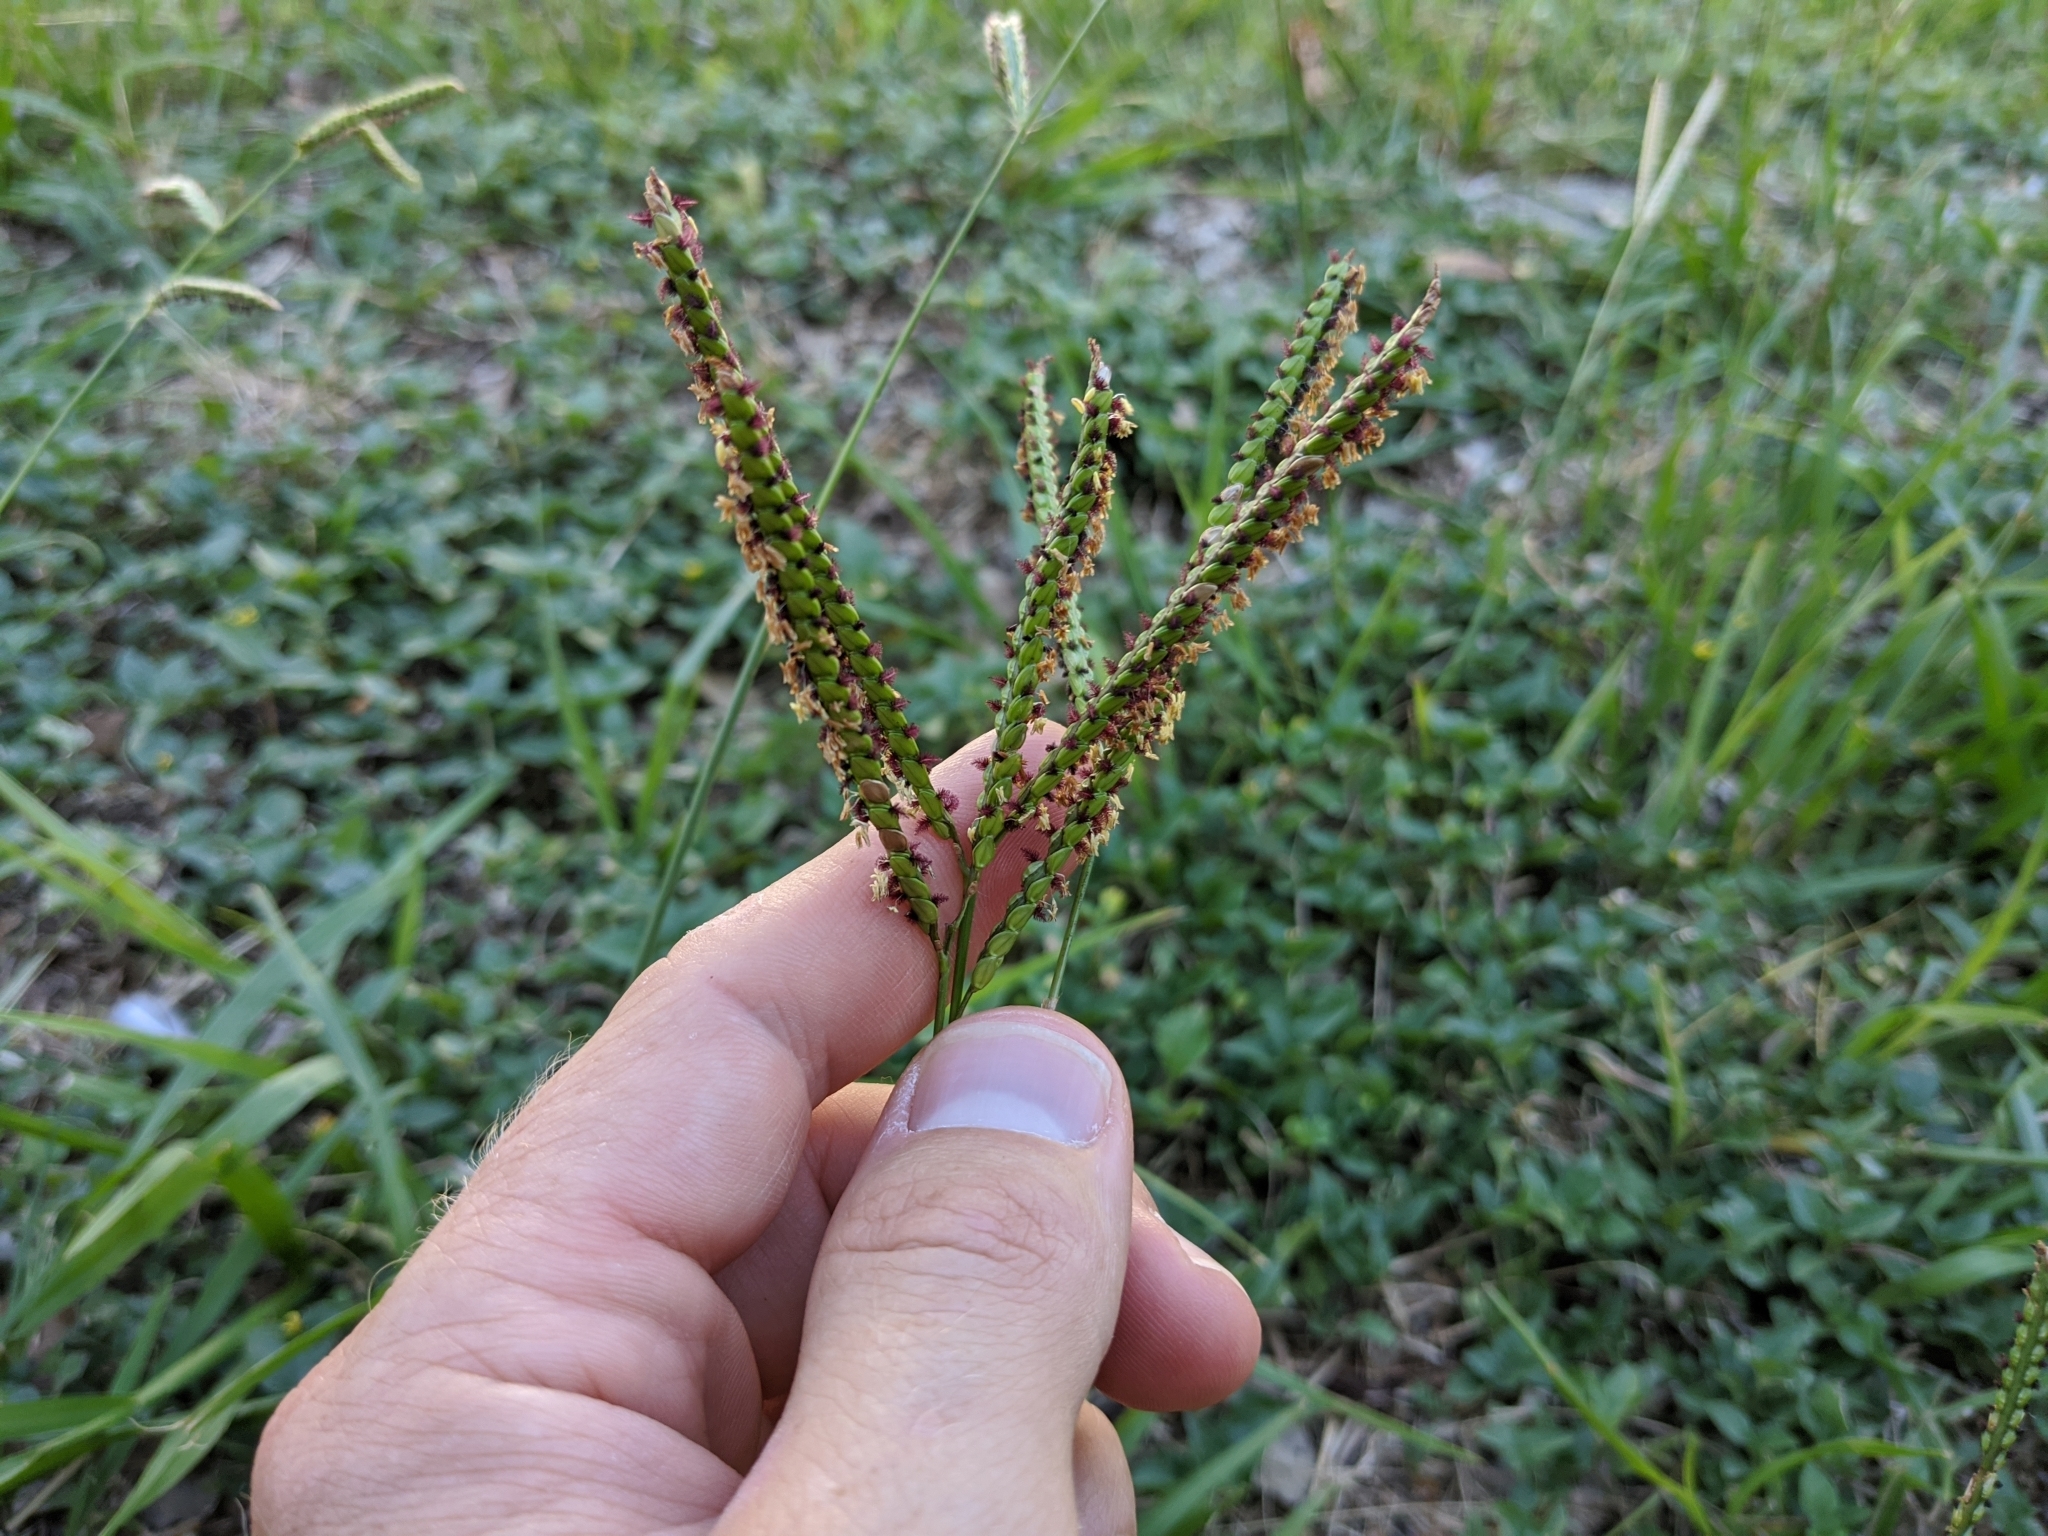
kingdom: Plantae
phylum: Tracheophyta
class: Liliopsida
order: Poales
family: Poaceae
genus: Paspalum
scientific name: Paspalum notatum
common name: Bahiagrass
